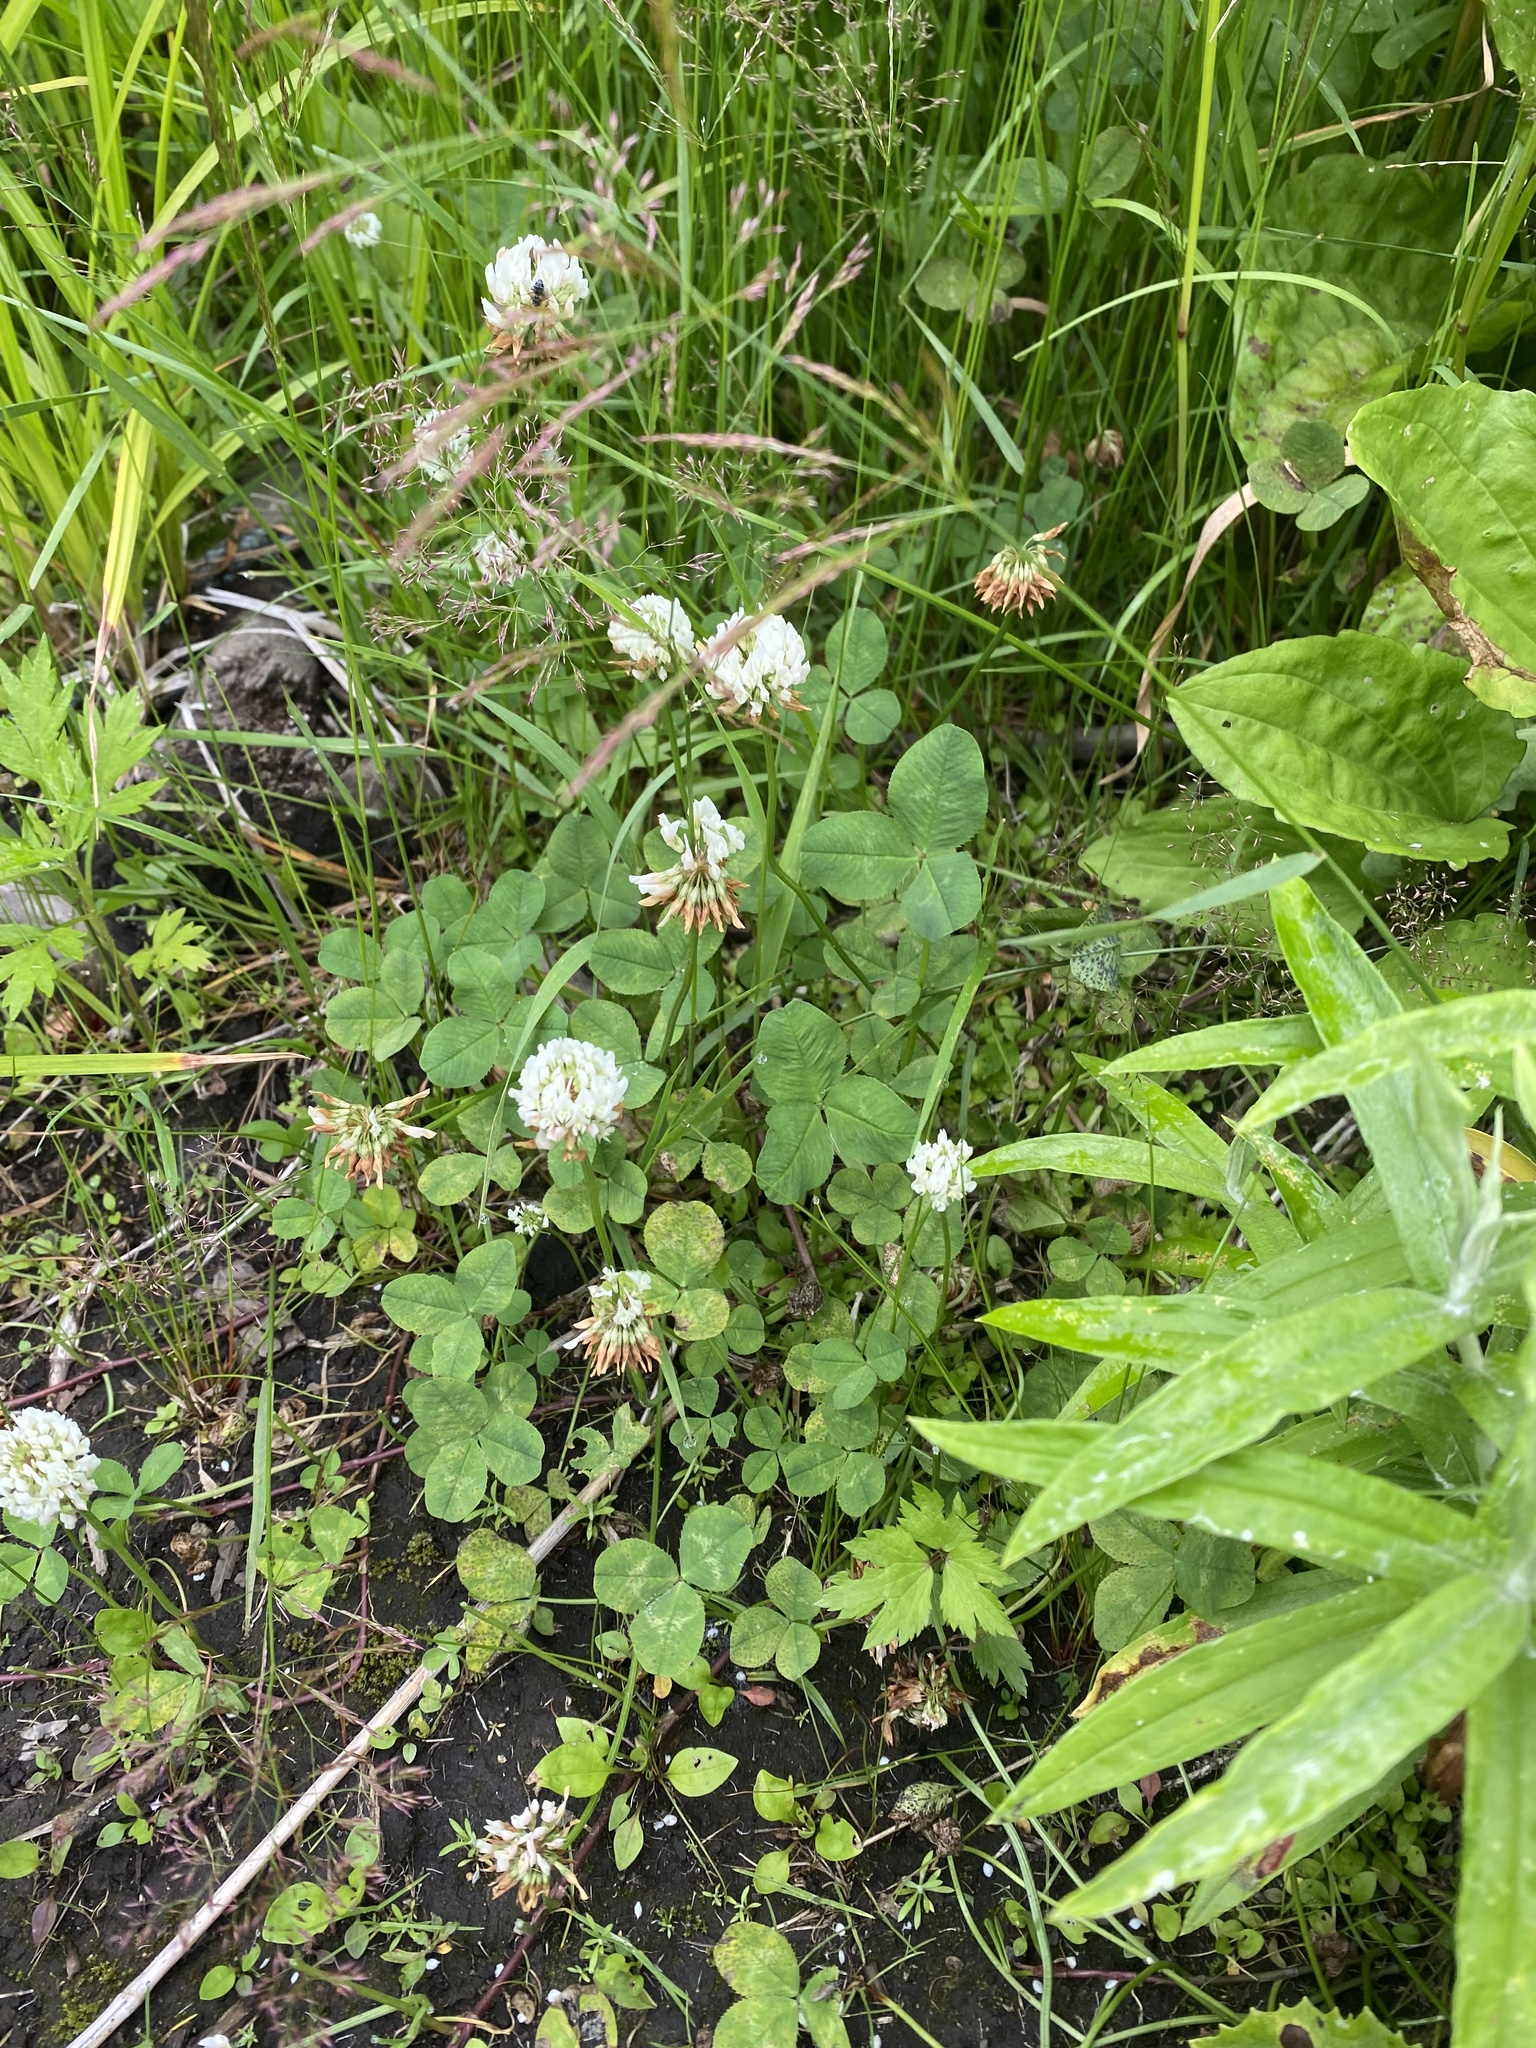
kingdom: Plantae
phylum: Tracheophyta
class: Magnoliopsida
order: Fabales
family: Fabaceae
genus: Trifolium
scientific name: Trifolium repens
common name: White clover
